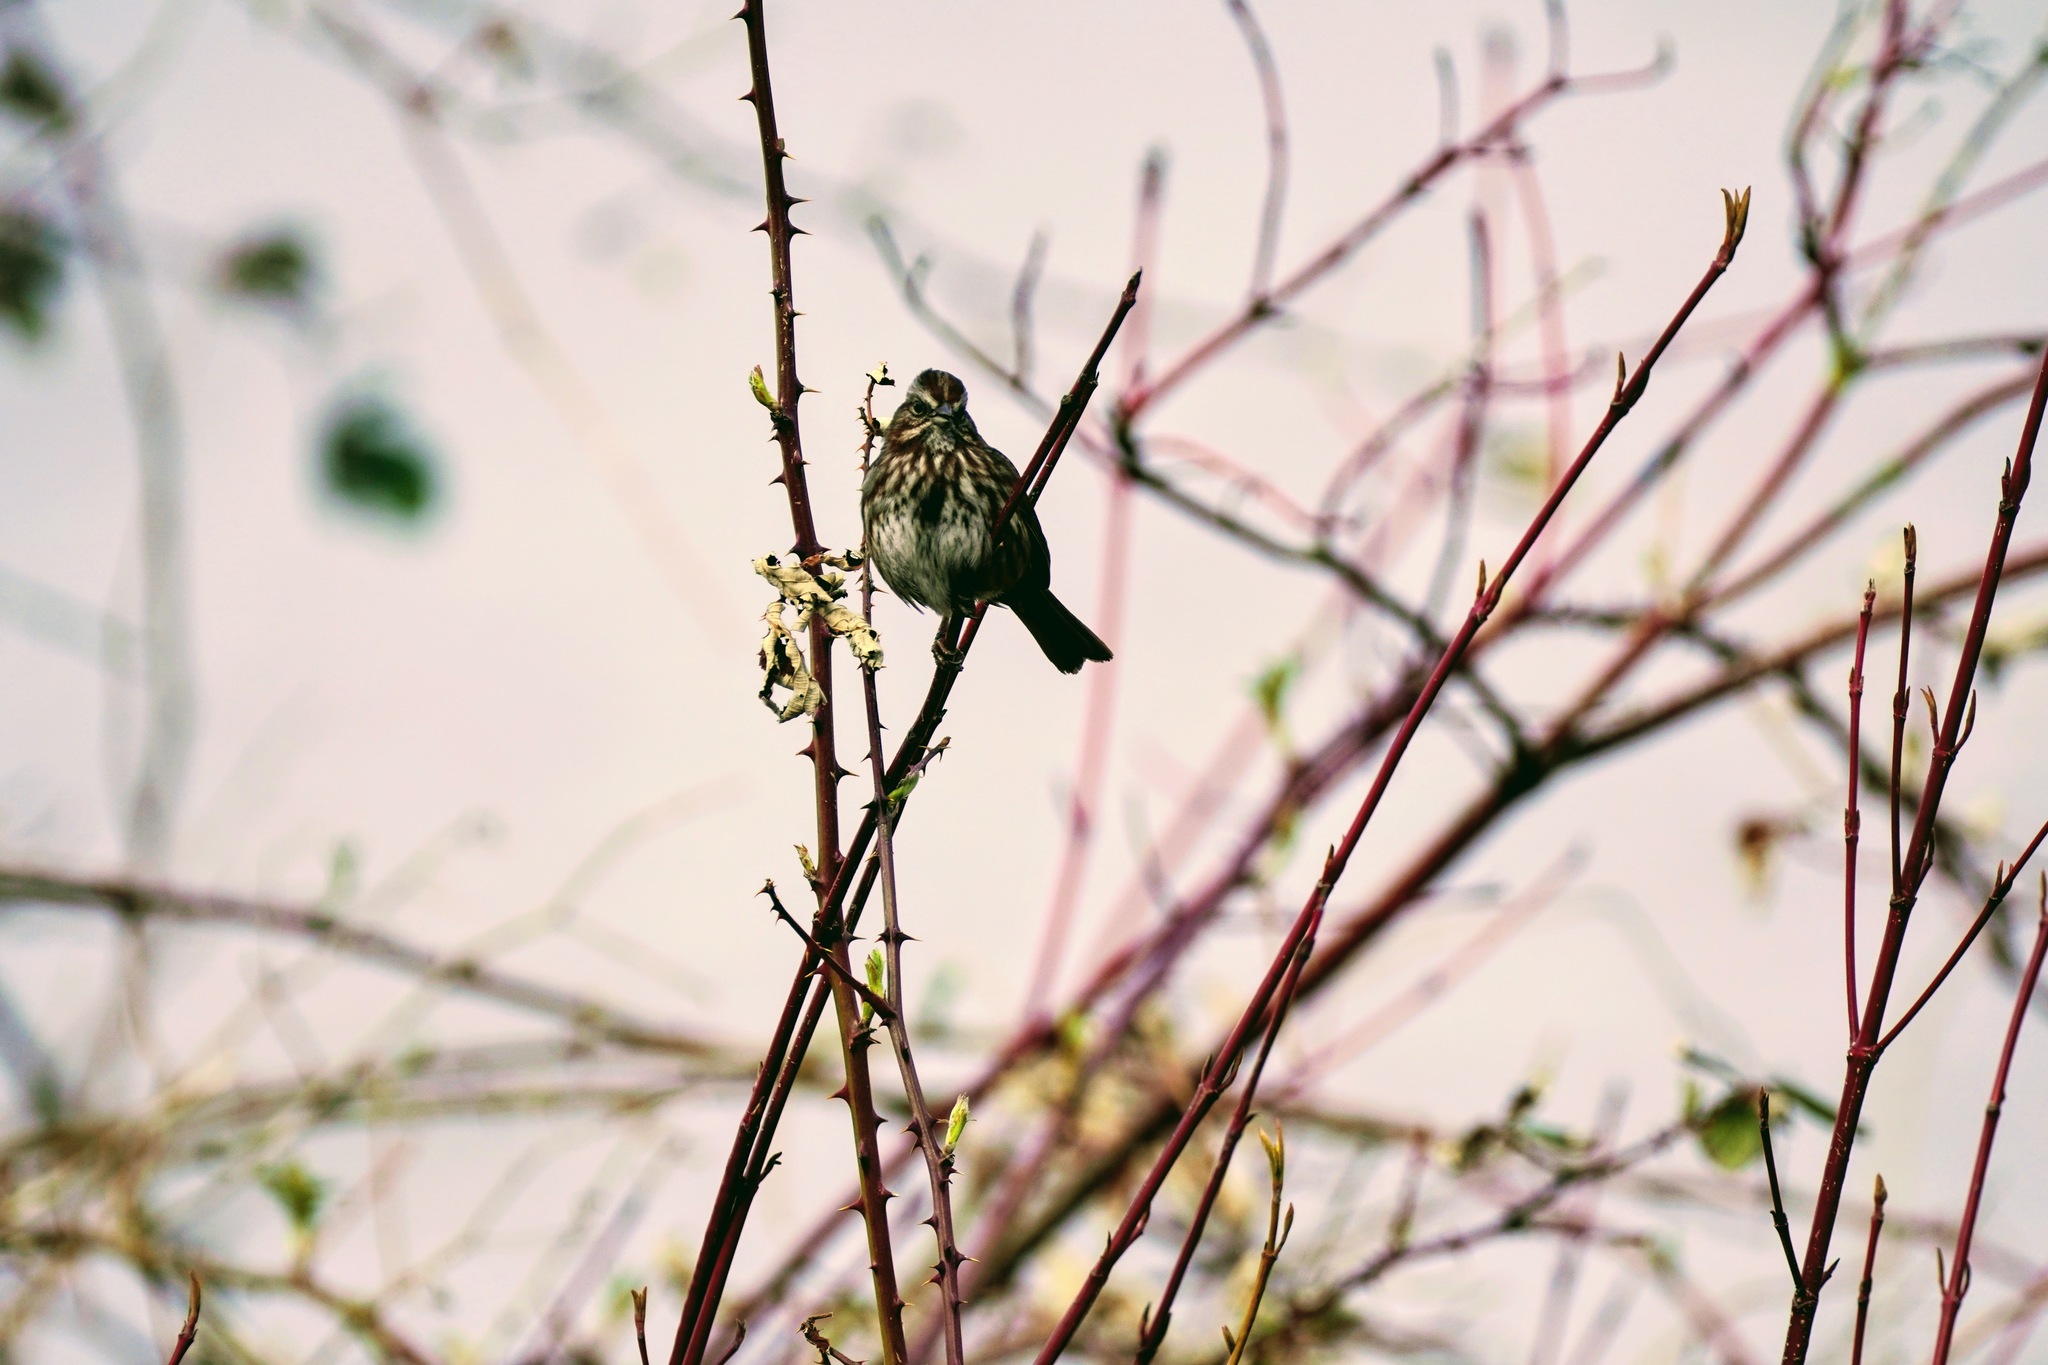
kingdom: Animalia
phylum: Chordata
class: Aves
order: Passeriformes
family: Passerellidae
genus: Melospiza
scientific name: Melospiza melodia
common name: Song sparrow
